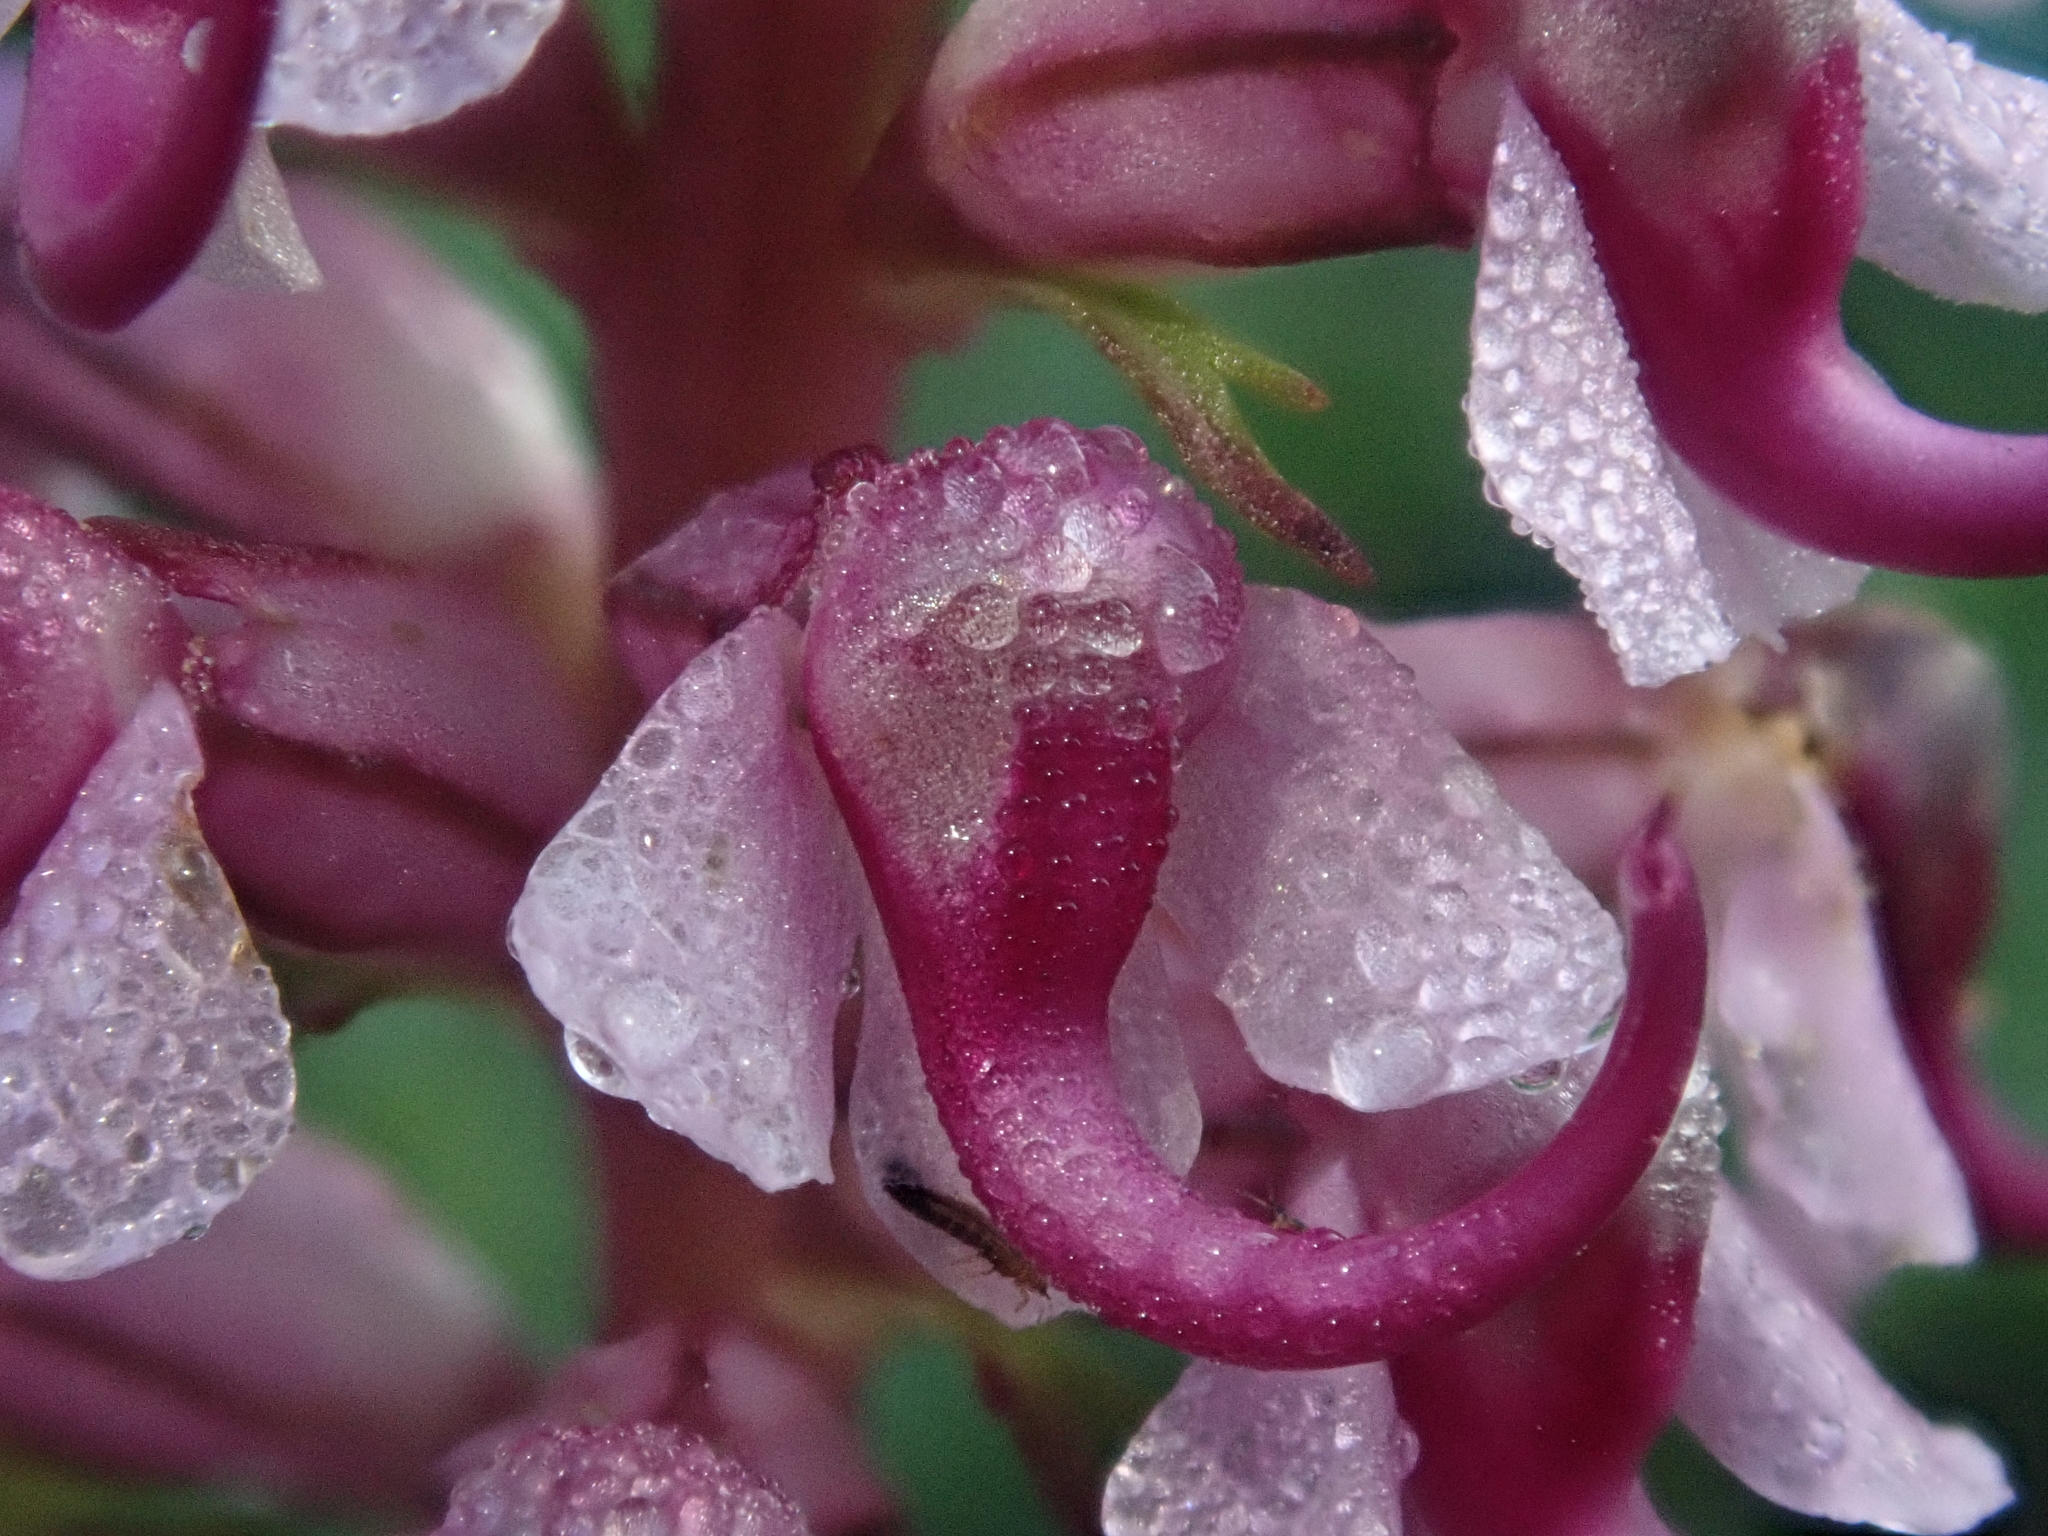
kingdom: Plantae
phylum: Tracheophyta
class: Magnoliopsida
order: Lamiales
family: Orobanchaceae
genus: Pedicularis
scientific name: Pedicularis groenlandica
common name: Elephant's-head
